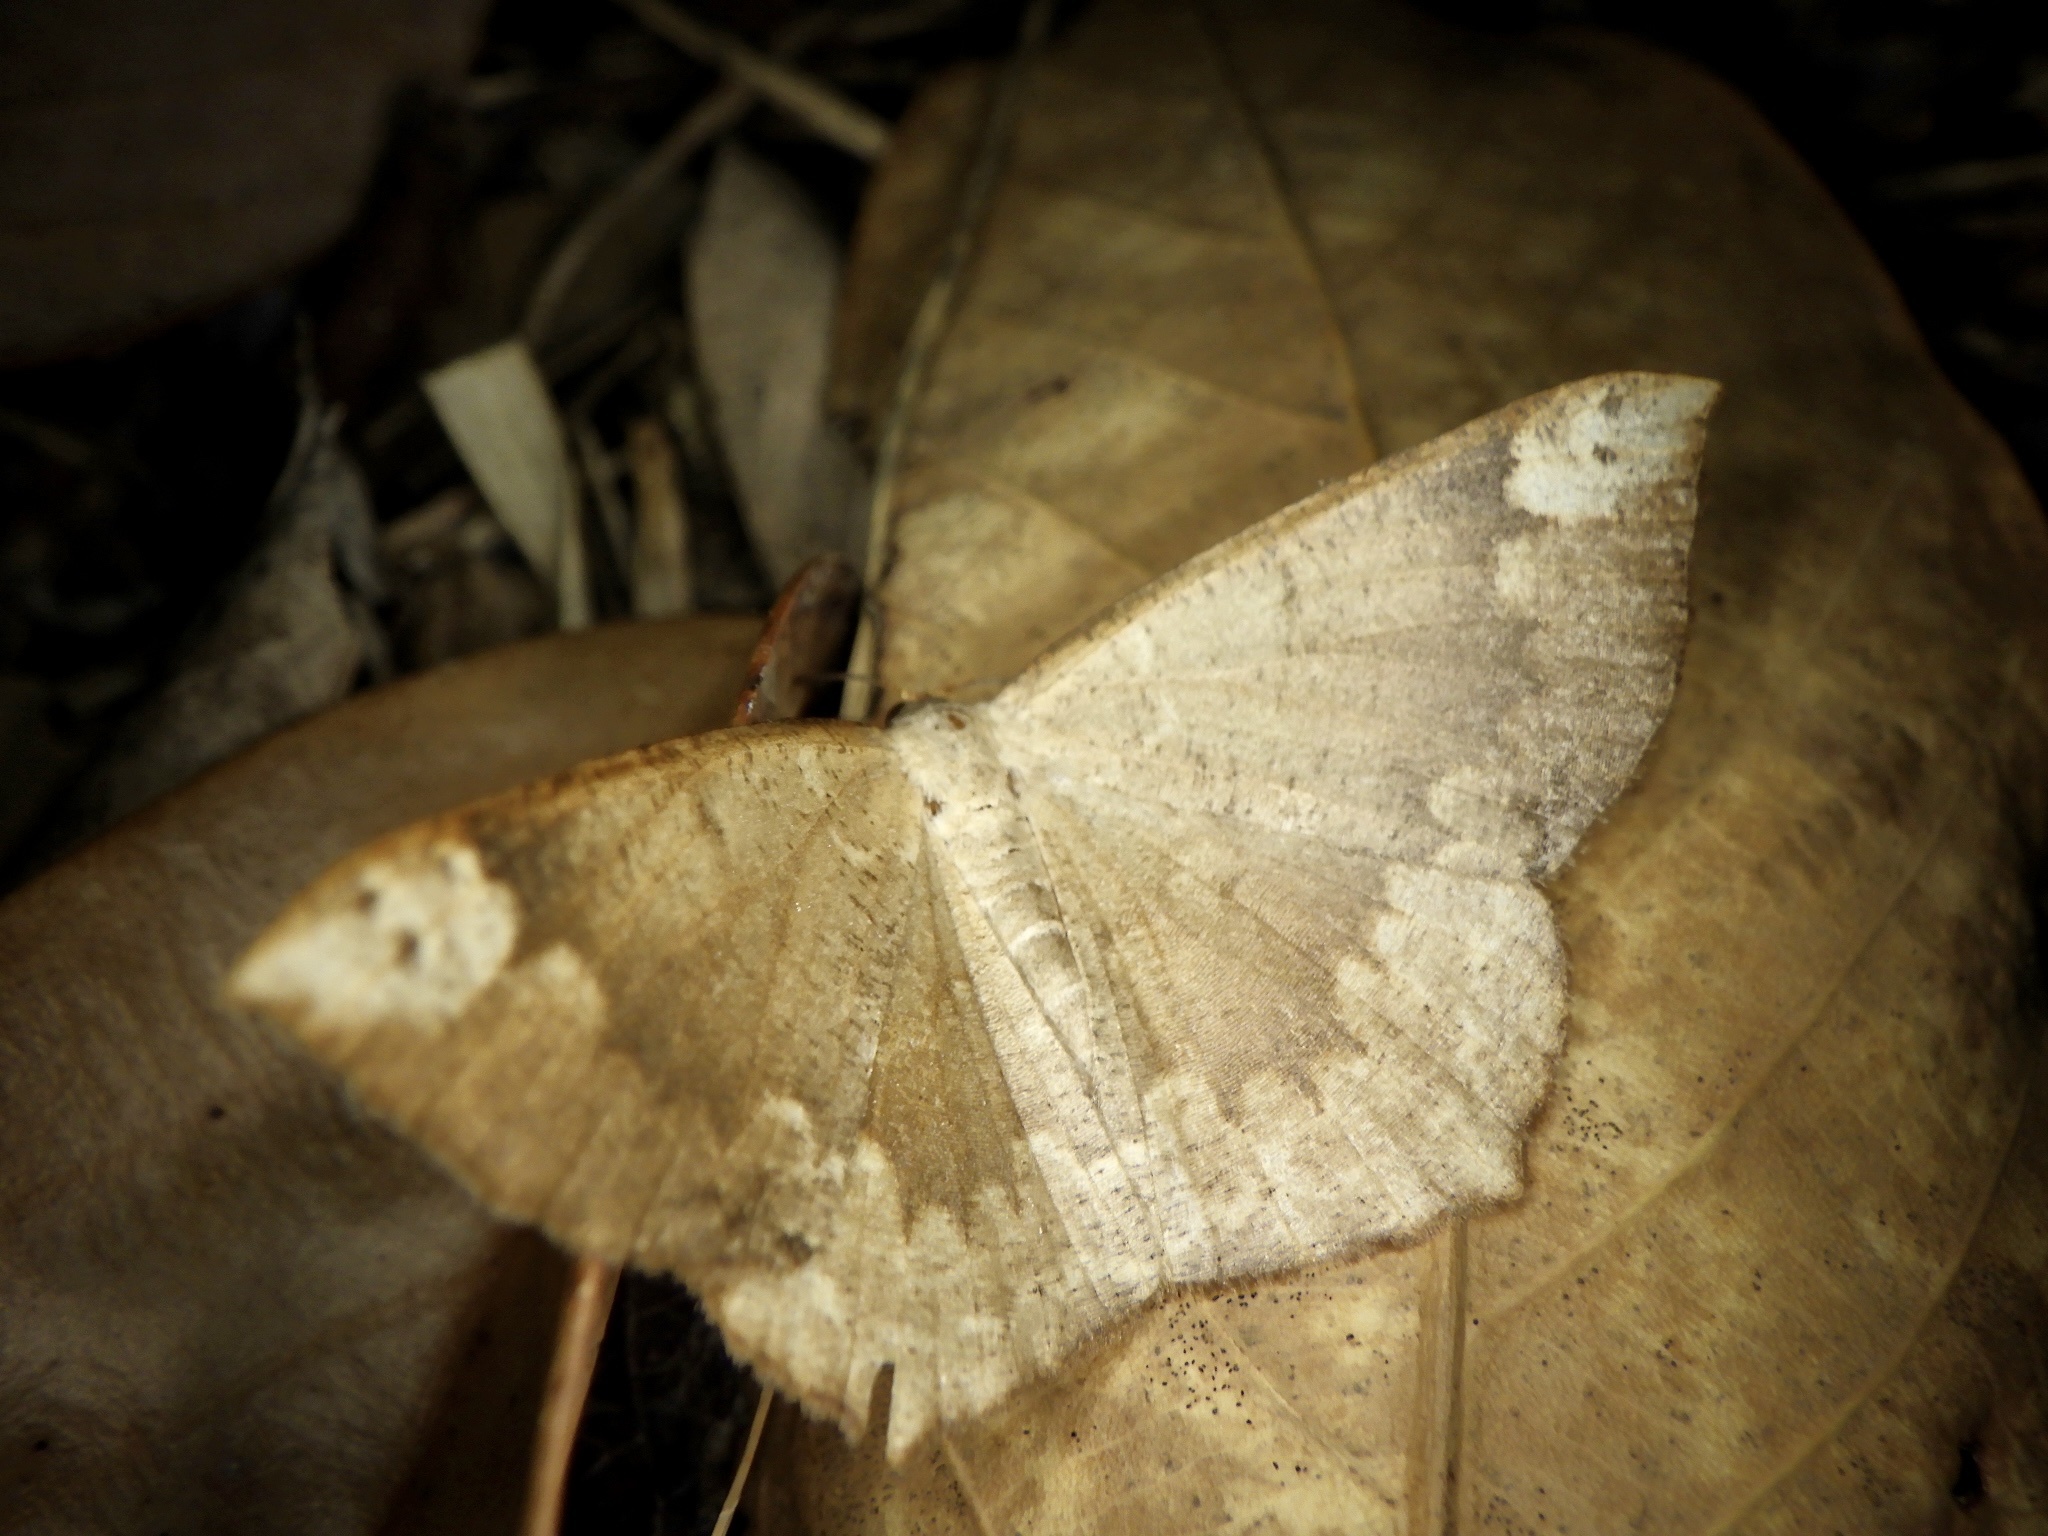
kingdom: Animalia
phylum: Arthropoda
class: Insecta
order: Lepidoptera
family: Geometridae
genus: Peratostega
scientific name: Peratostega deletaria
